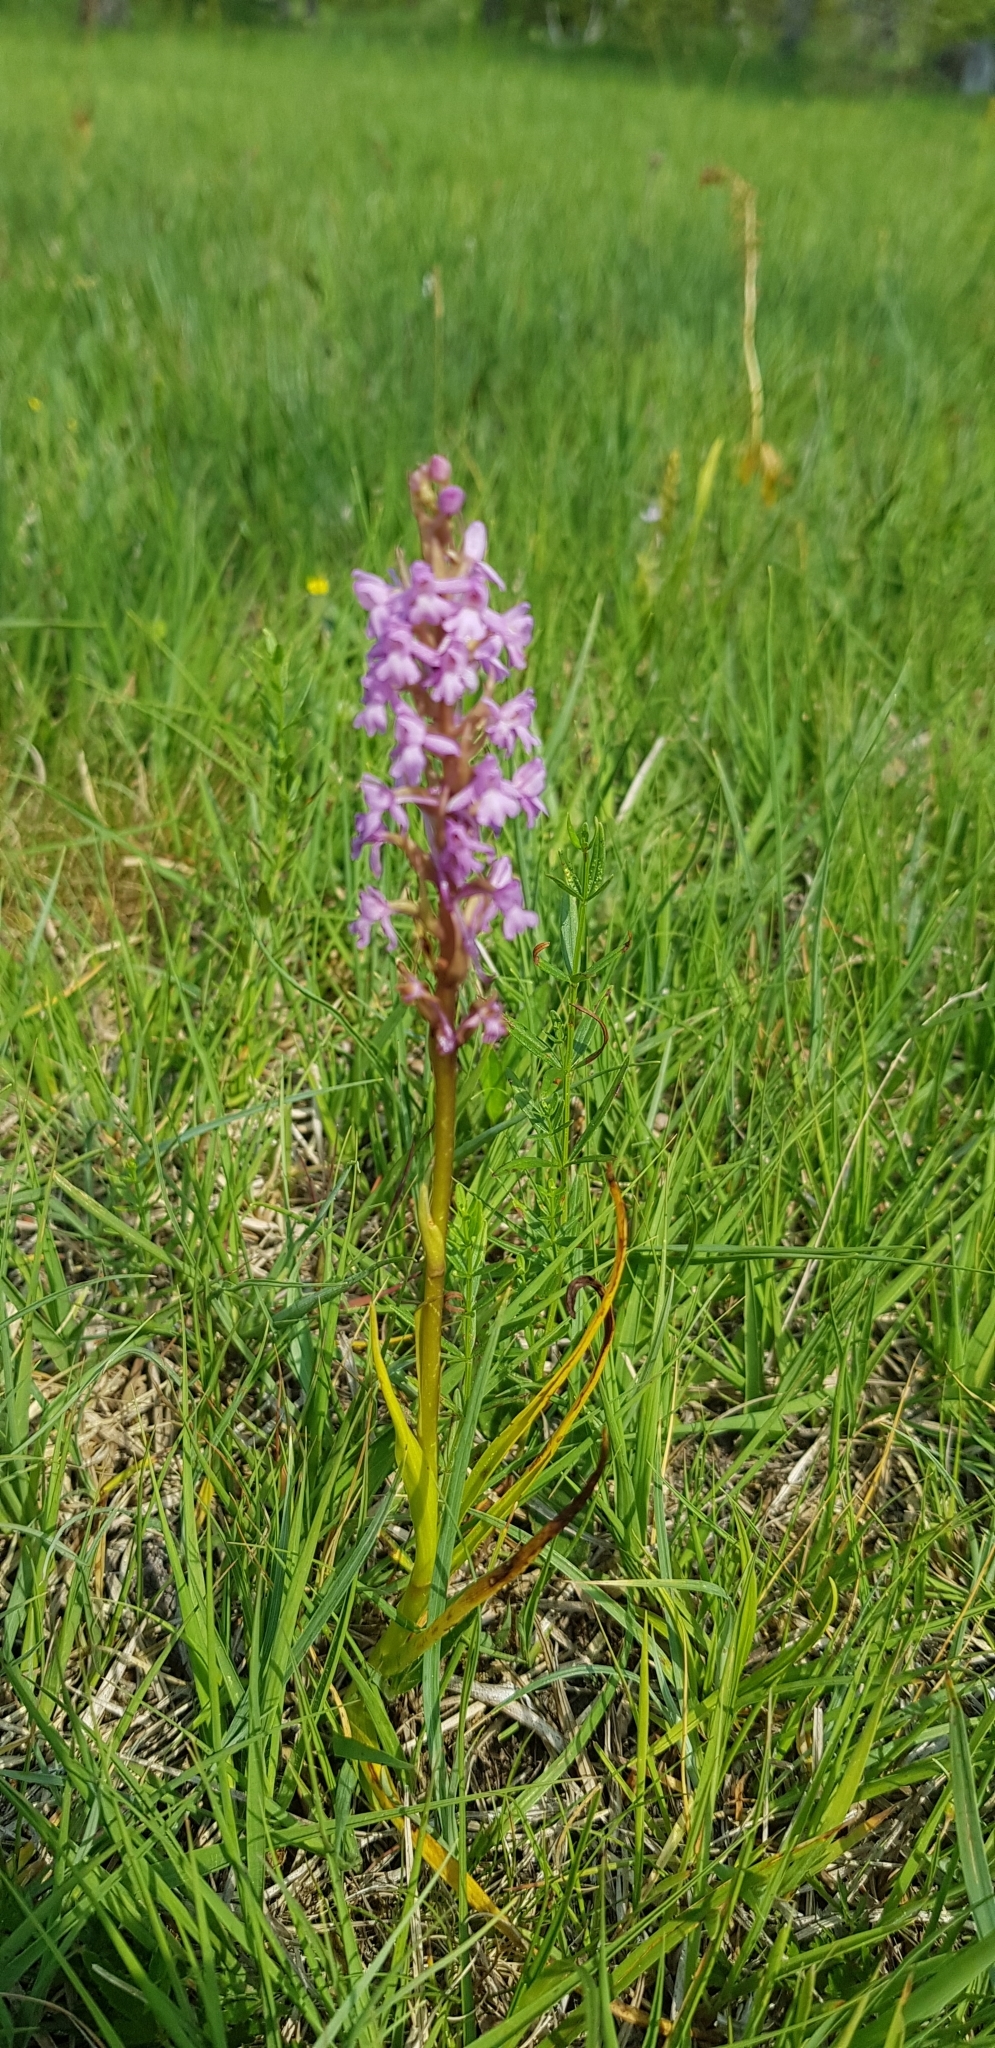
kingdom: Plantae
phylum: Tracheophyta
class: Liliopsida
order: Asparagales
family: Orchidaceae
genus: Gymnadenia
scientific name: Gymnadenia conopsea
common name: Fragrant orchid
